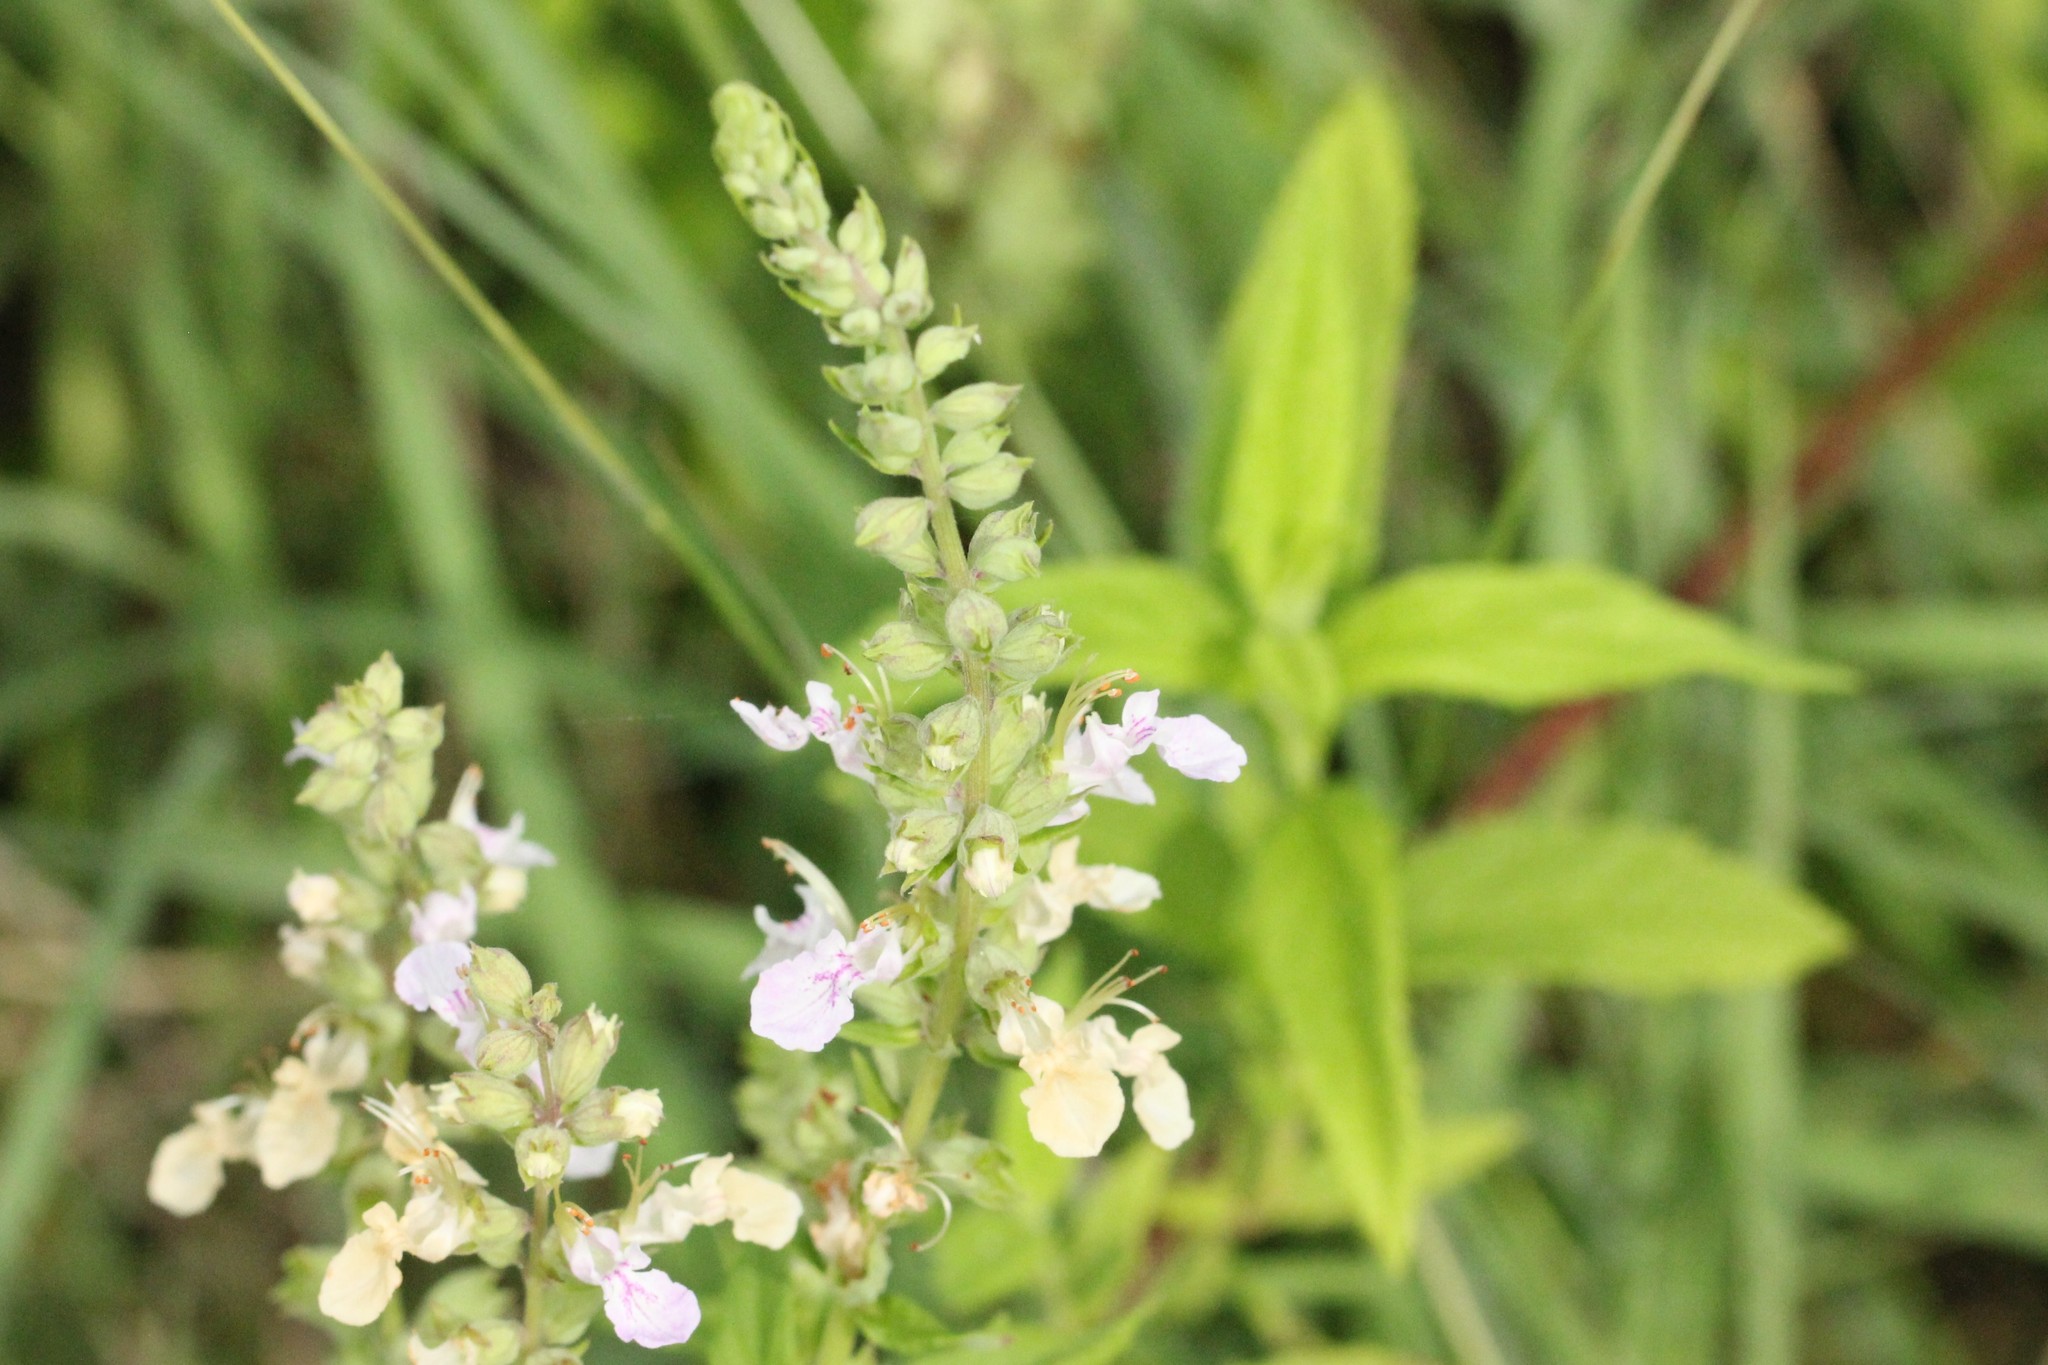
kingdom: Plantae
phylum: Tracheophyta
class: Magnoliopsida
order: Lamiales
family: Lamiaceae
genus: Teucrium
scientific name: Teucrium canadense
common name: American germander
